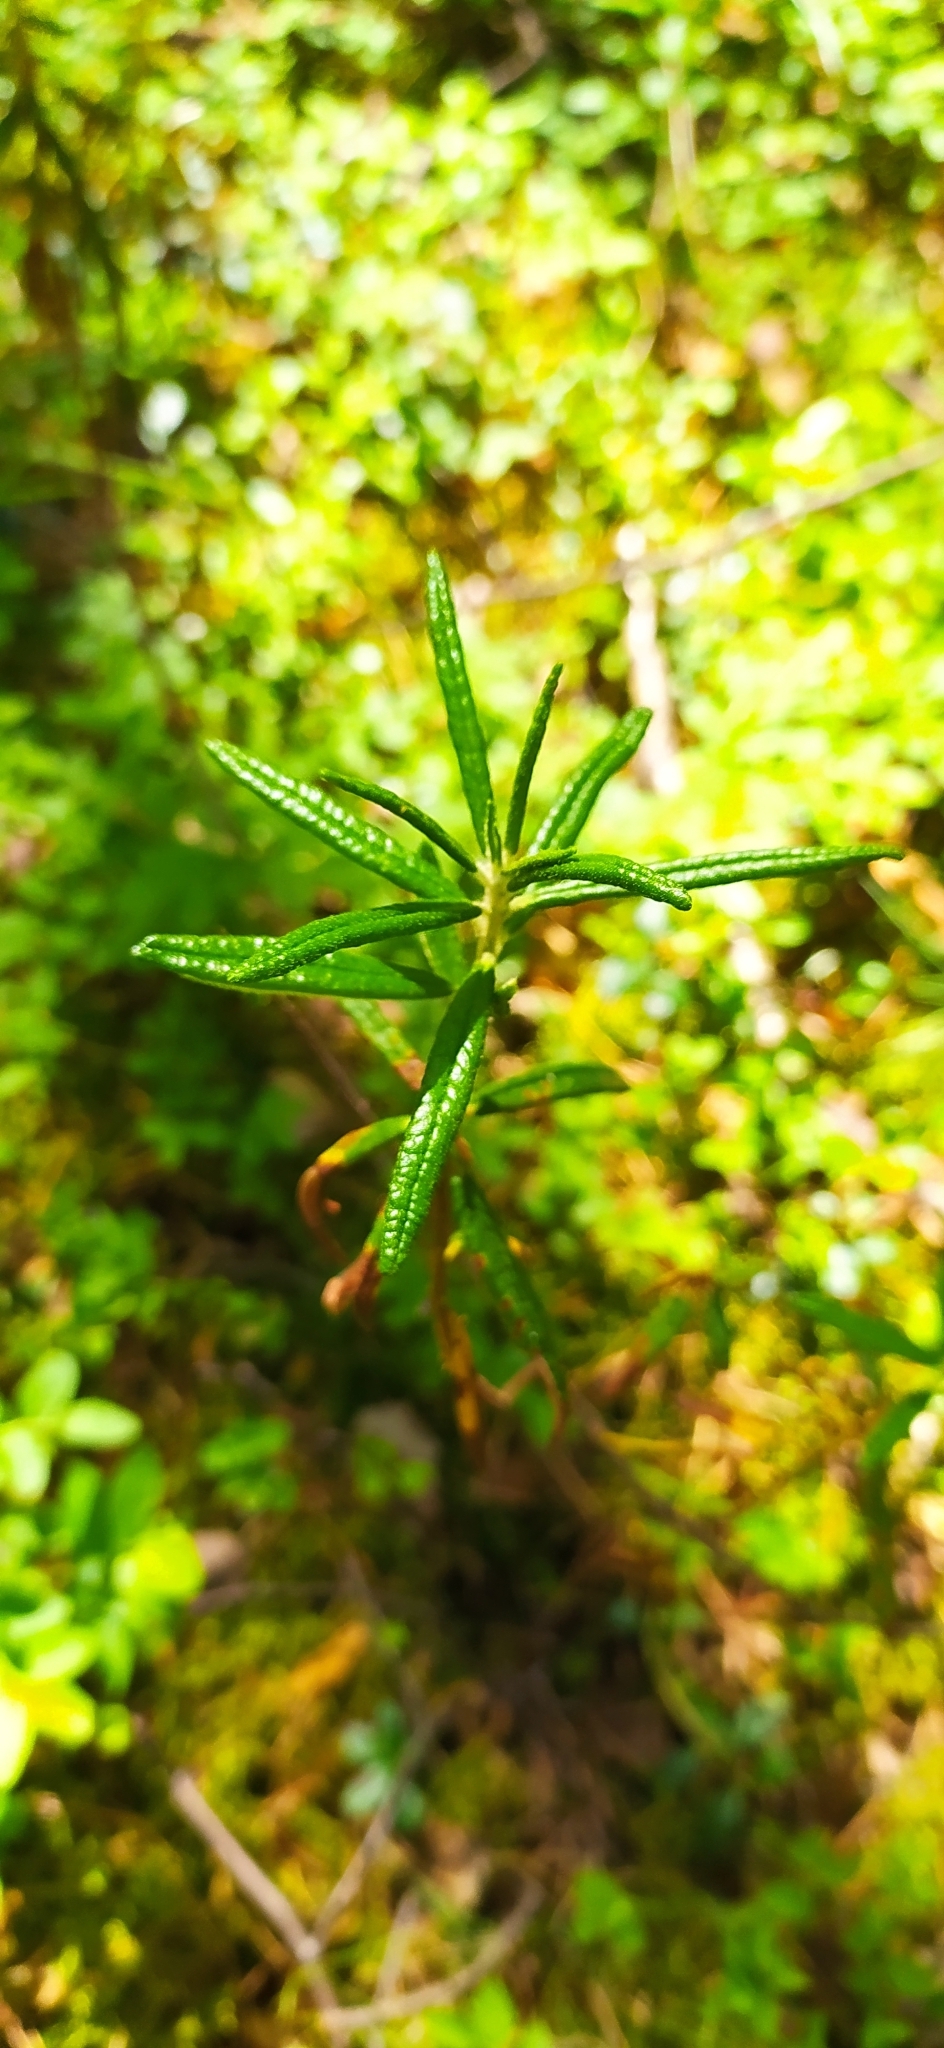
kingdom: Plantae
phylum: Tracheophyta
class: Magnoliopsida
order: Ericales
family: Ericaceae
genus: Rhododendron
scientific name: Rhododendron tomentosum
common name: Marsh labrador tea
